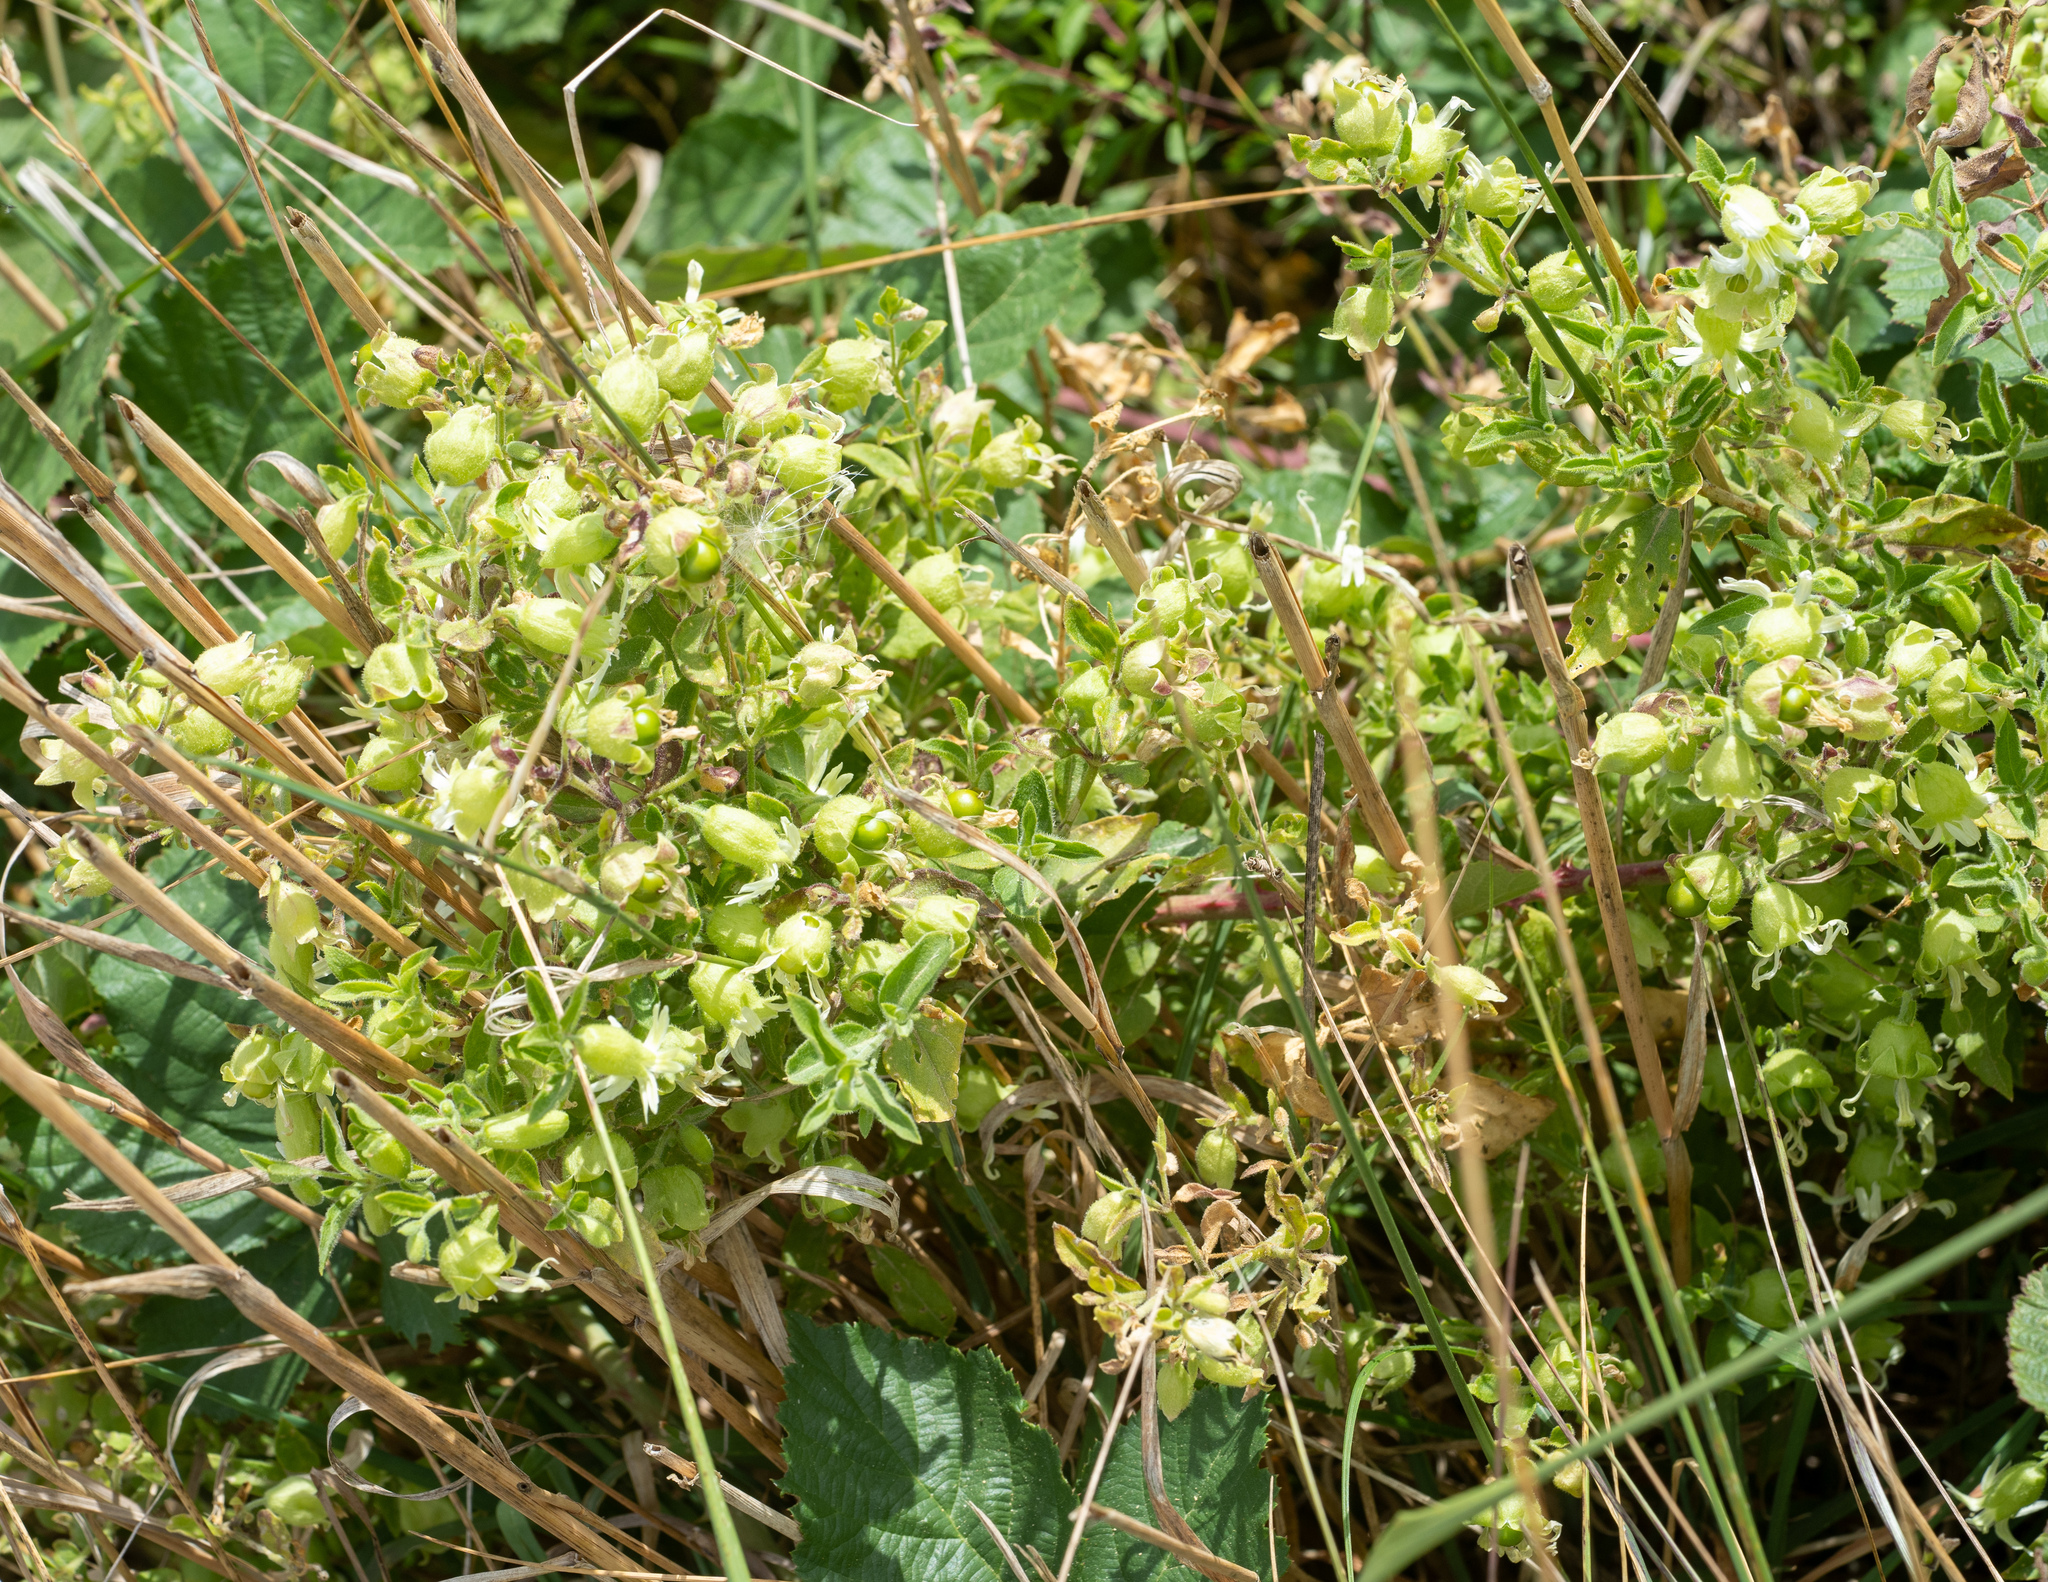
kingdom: Plantae
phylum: Tracheophyta
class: Magnoliopsida
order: Caryophyllales
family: Caryophyllaceae
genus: Silene
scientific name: Silene baccifera
